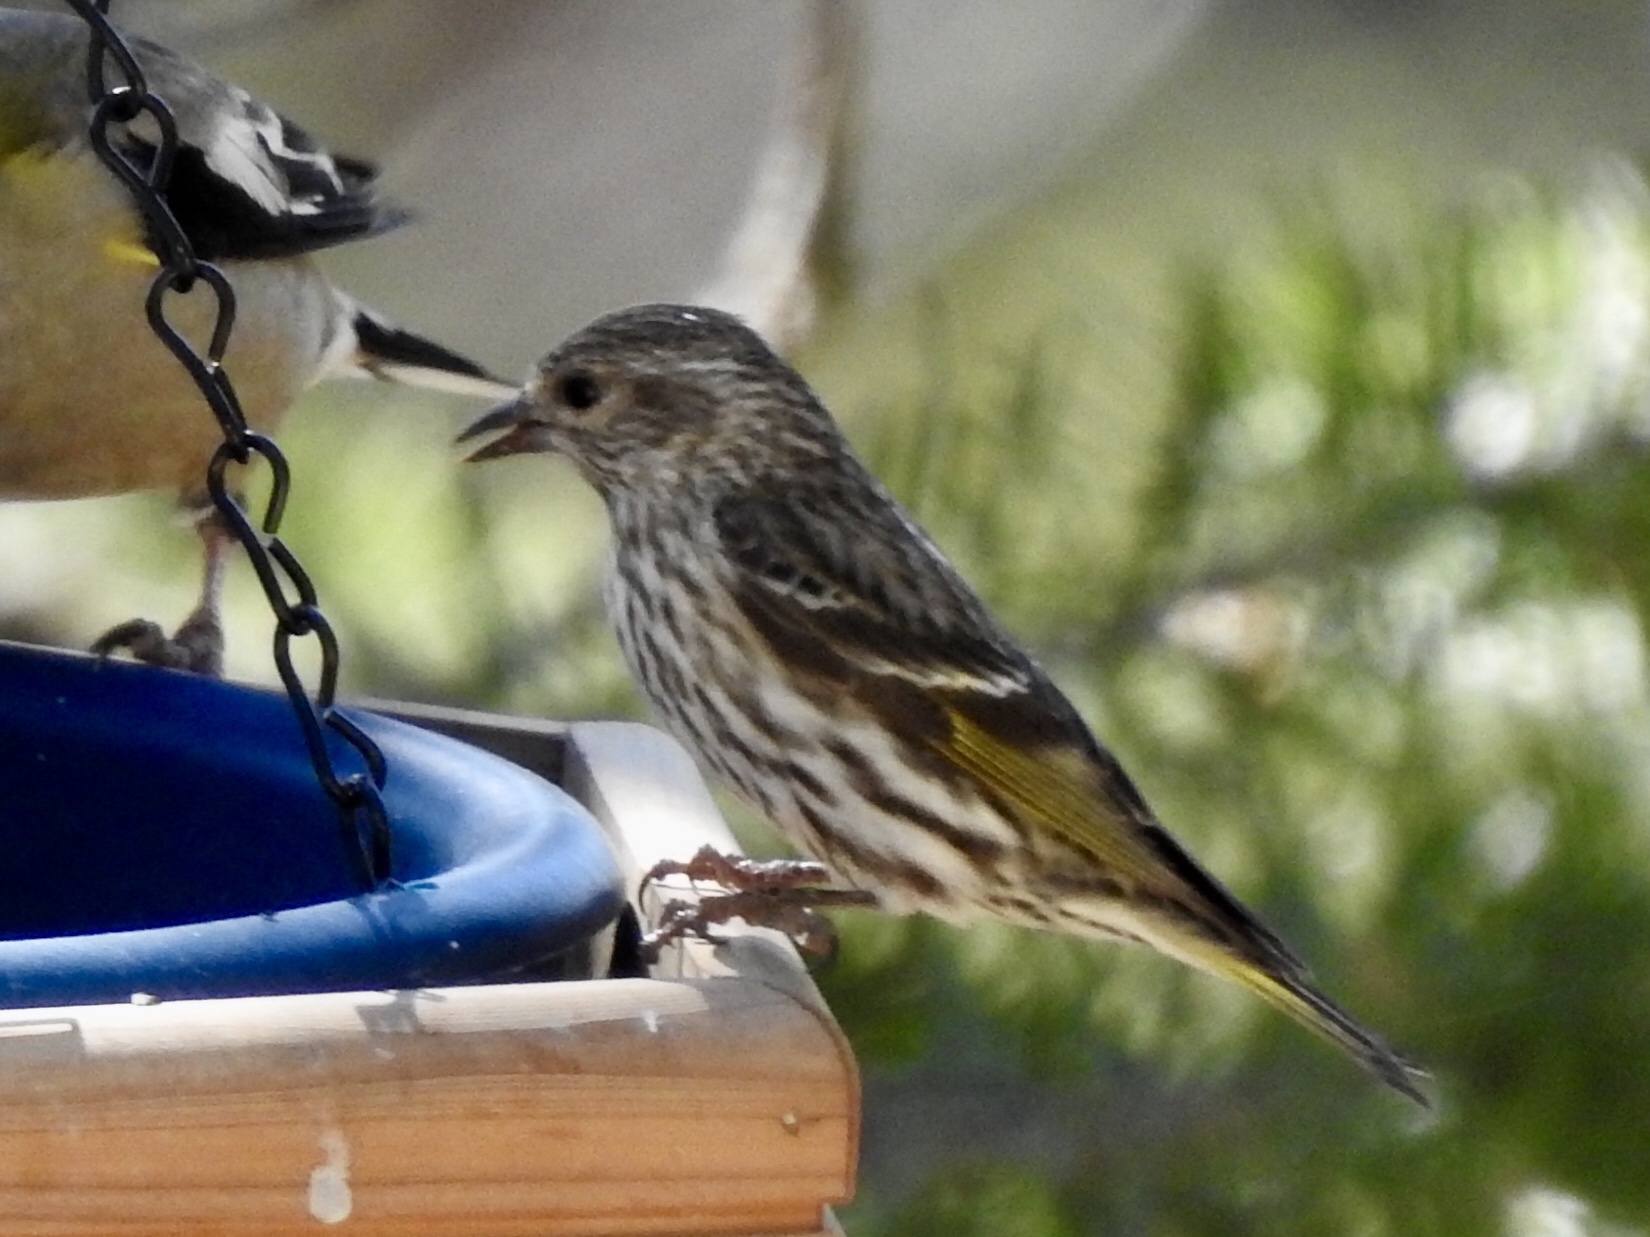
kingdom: Animalia
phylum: Chordata
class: Aves
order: Passeriformes
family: Fringillidae
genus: Spinus
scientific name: Spinus pinus
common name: Pine siskin
